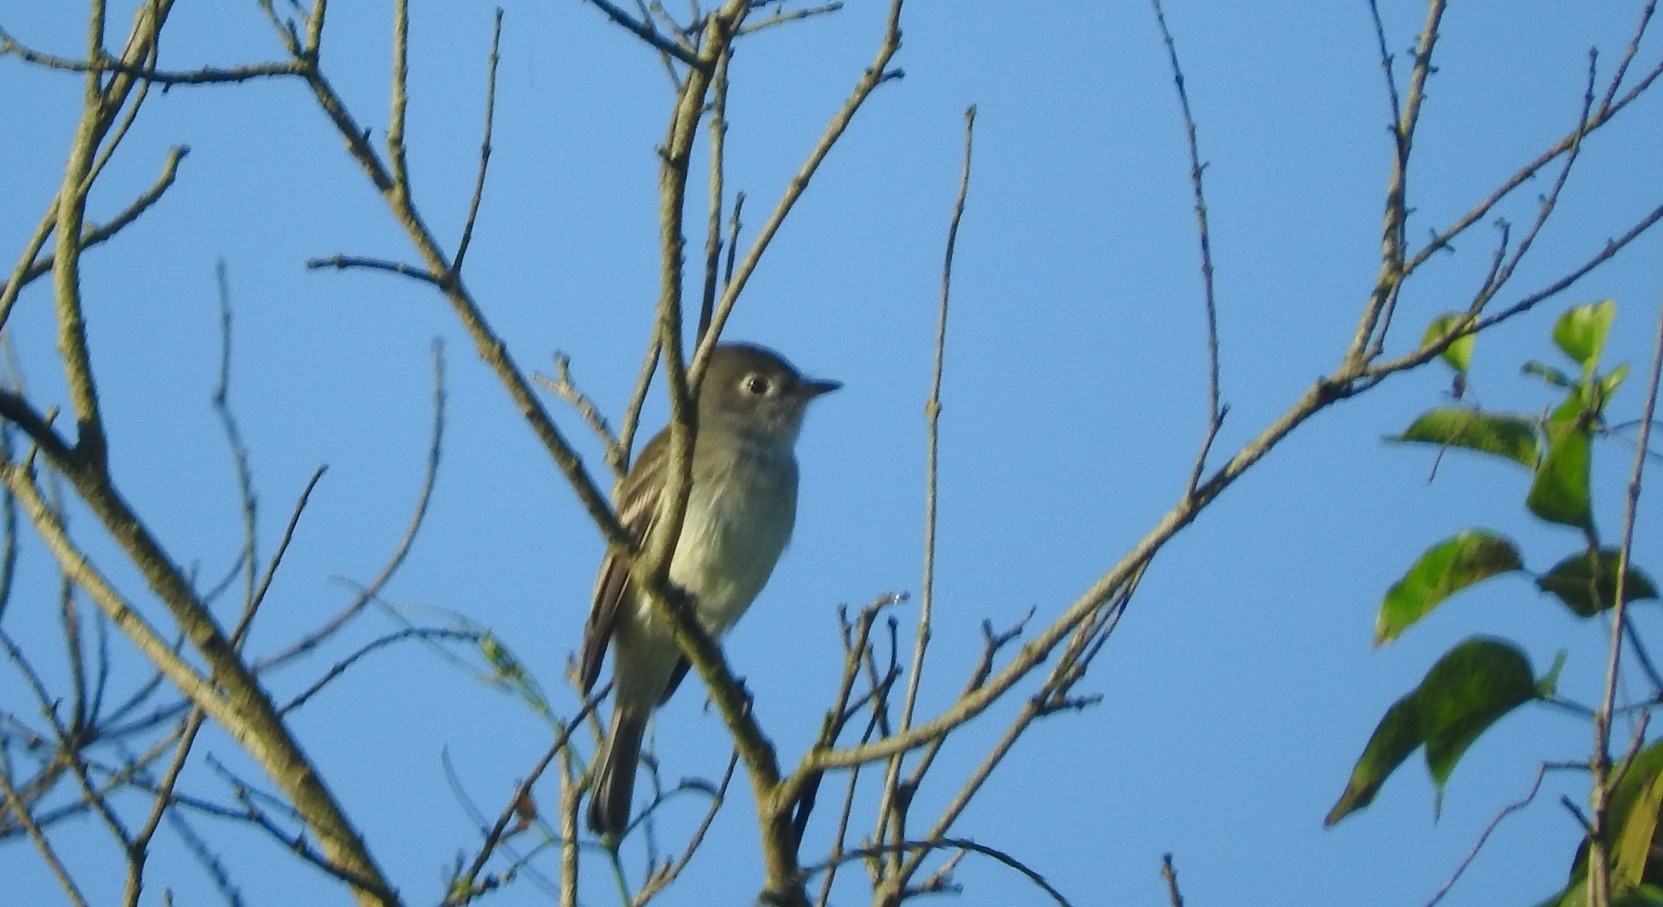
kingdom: Animalia
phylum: Chordata
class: Aves
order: Passeriformes
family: Tyrannidae
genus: Empidonax
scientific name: Empidonax minimus
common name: Least flycatcher
